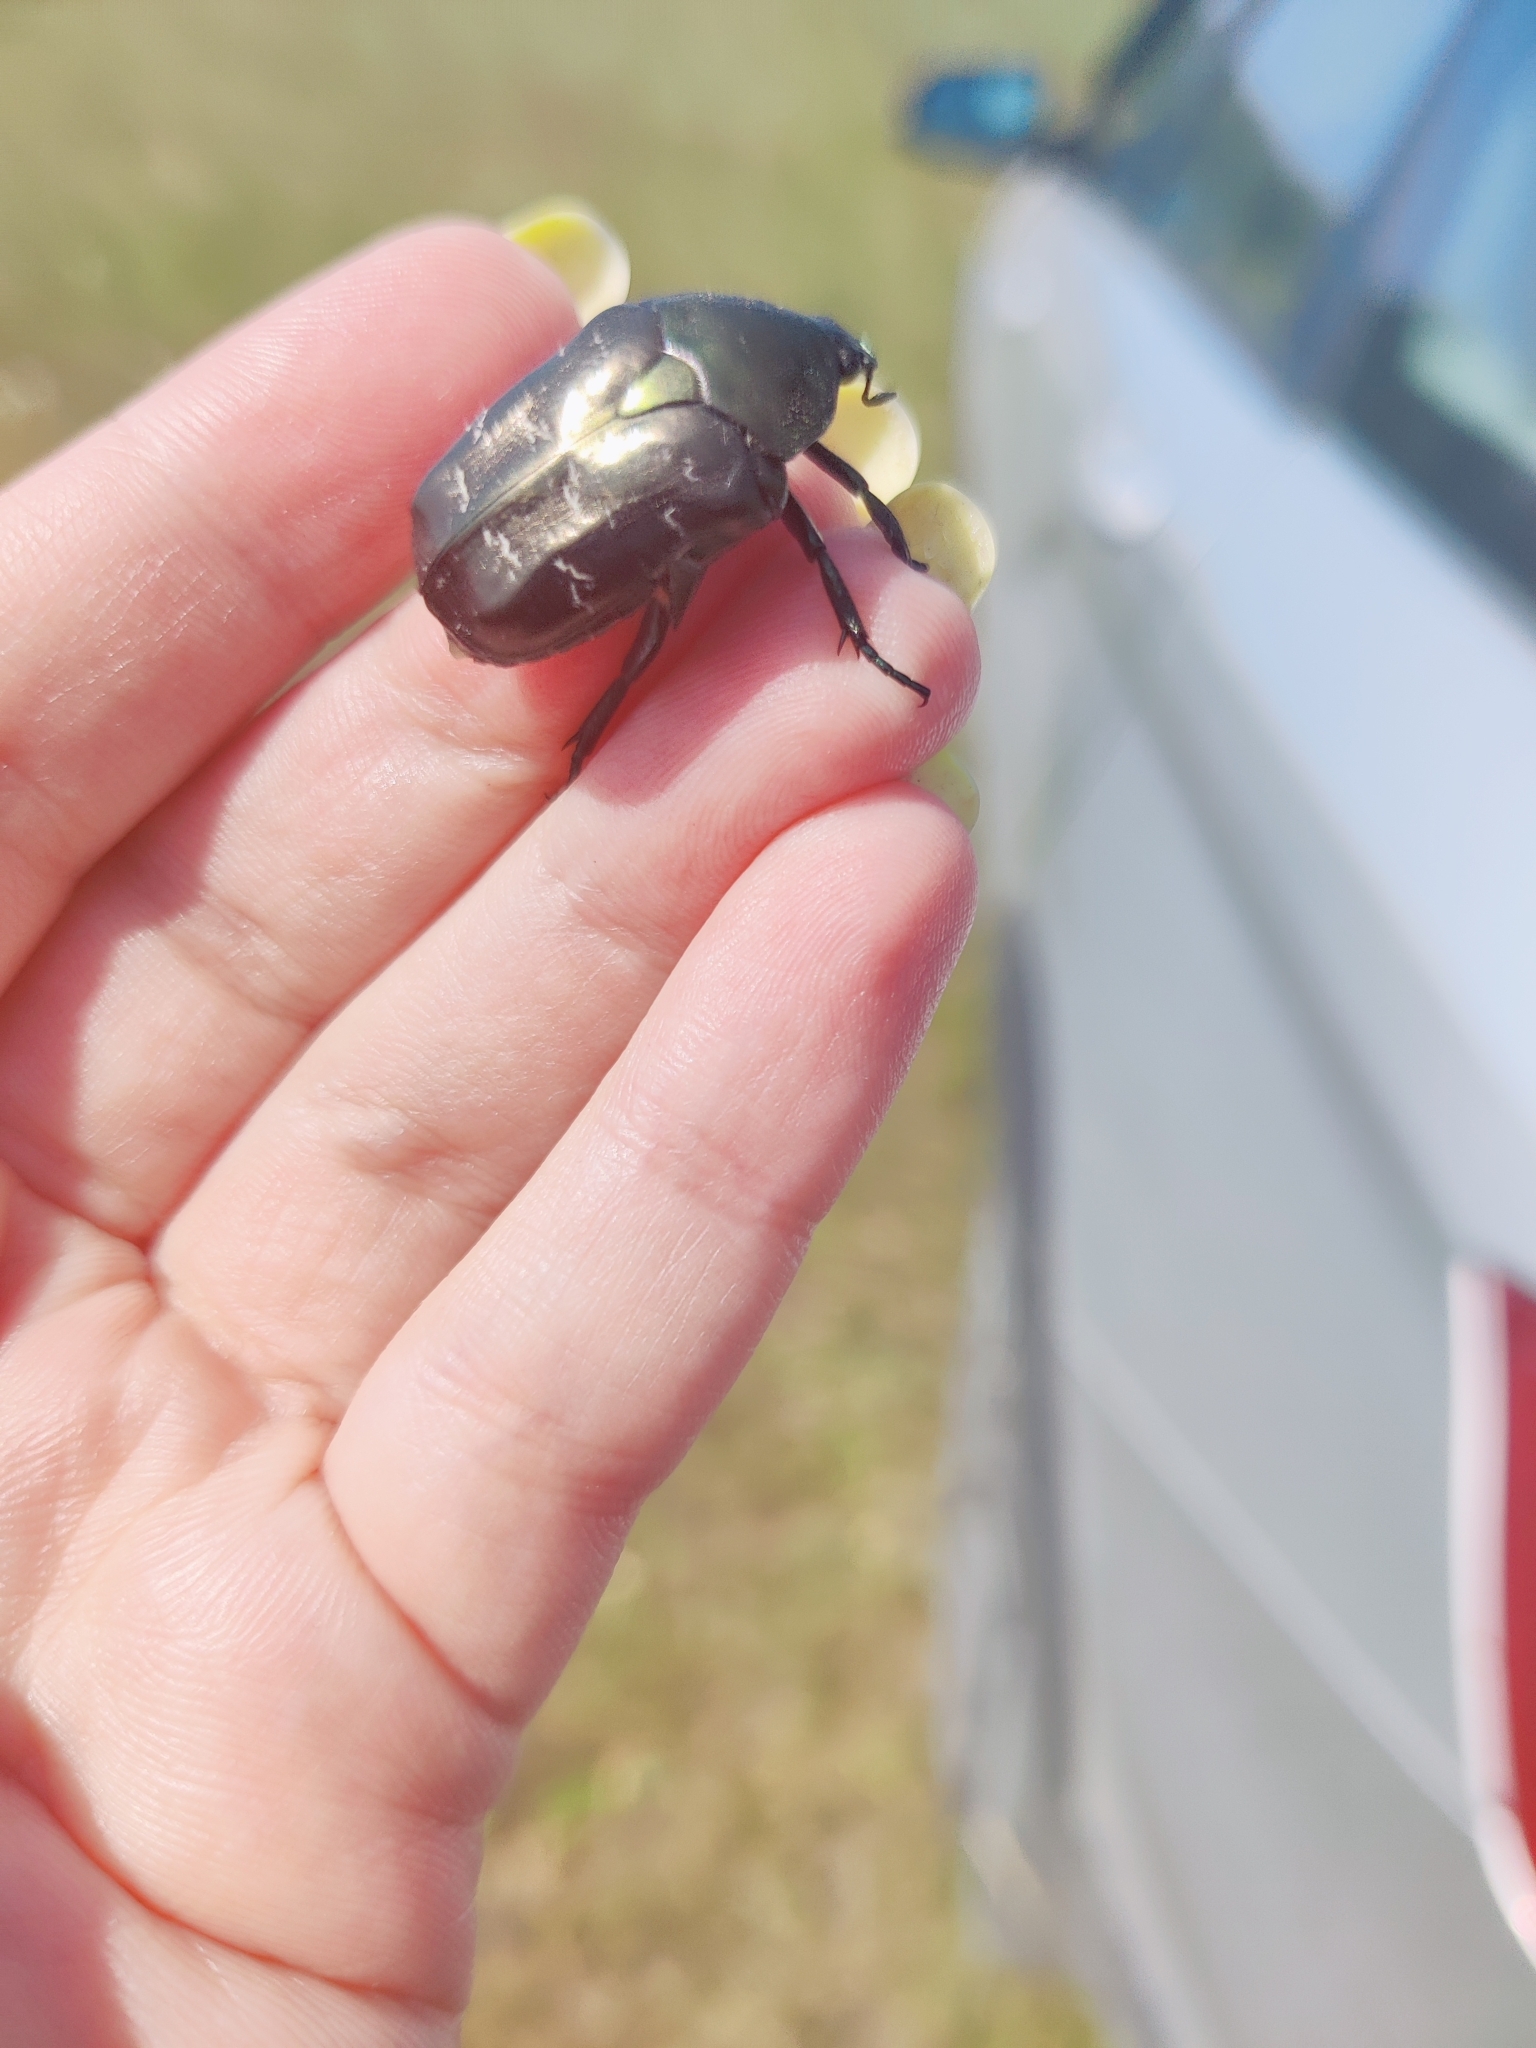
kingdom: Animalia
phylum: Arthropoda
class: Insecta
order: Coleoptera
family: Scarabaeidae
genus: Protaetia
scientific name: Protaetia marmorata
